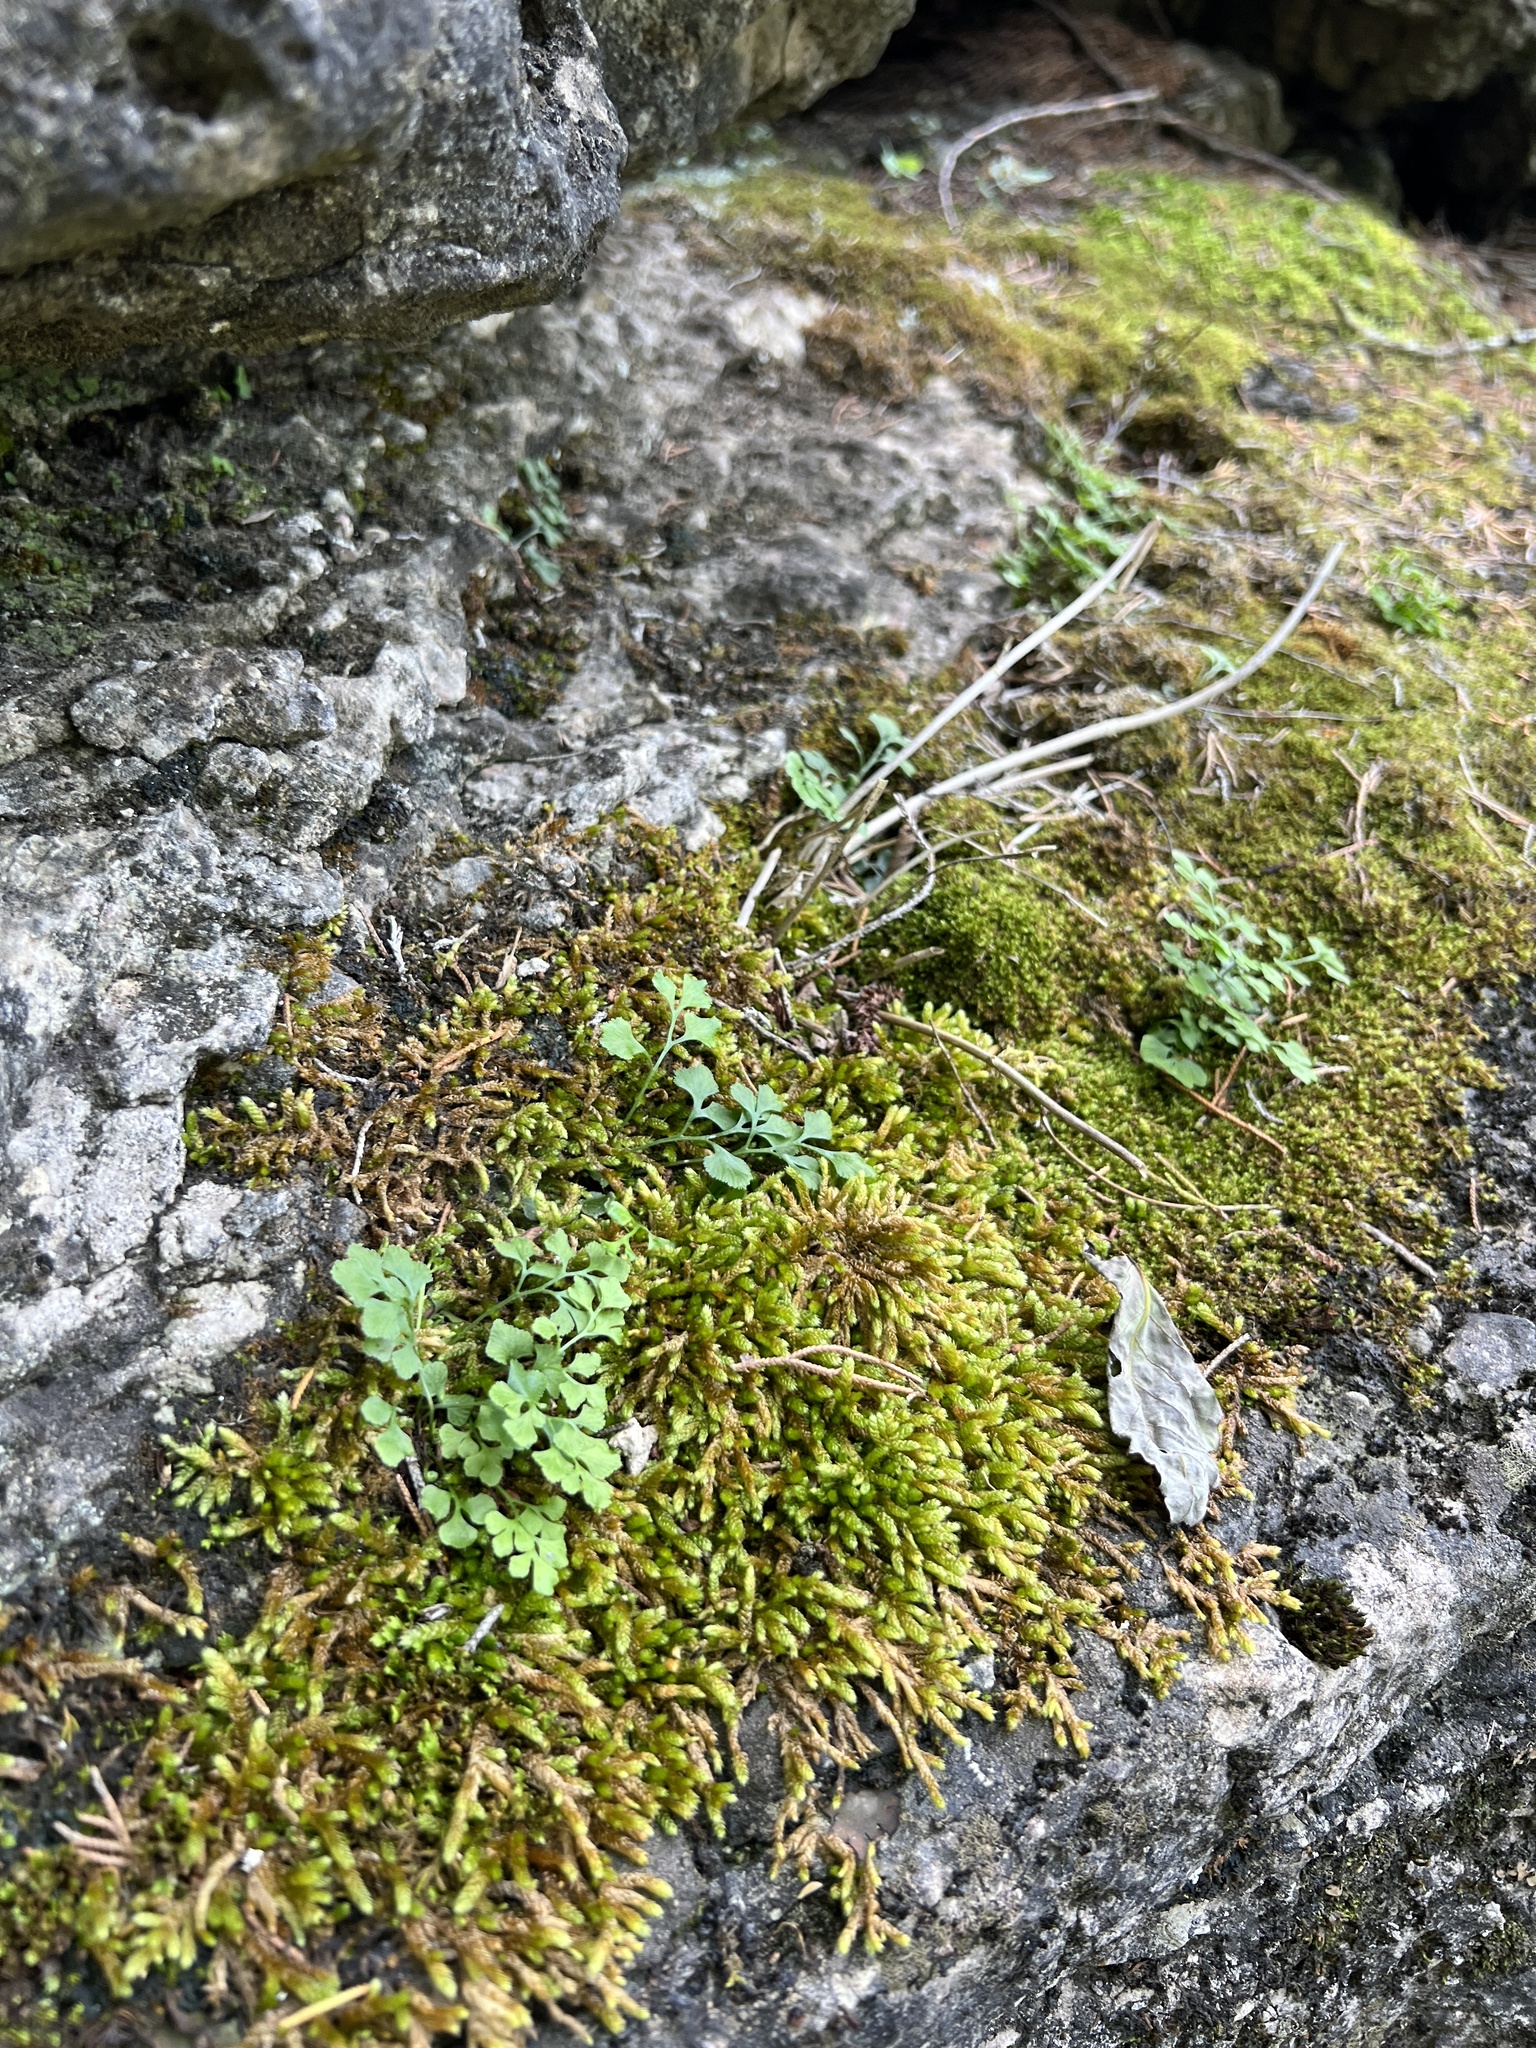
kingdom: Plantae
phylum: Tracheophyta
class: Polypodiopsida
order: Polypodiales
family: Aspleniaceae
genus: Asplenium
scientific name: Asplenium ruta-muraria
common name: Wall-rue
